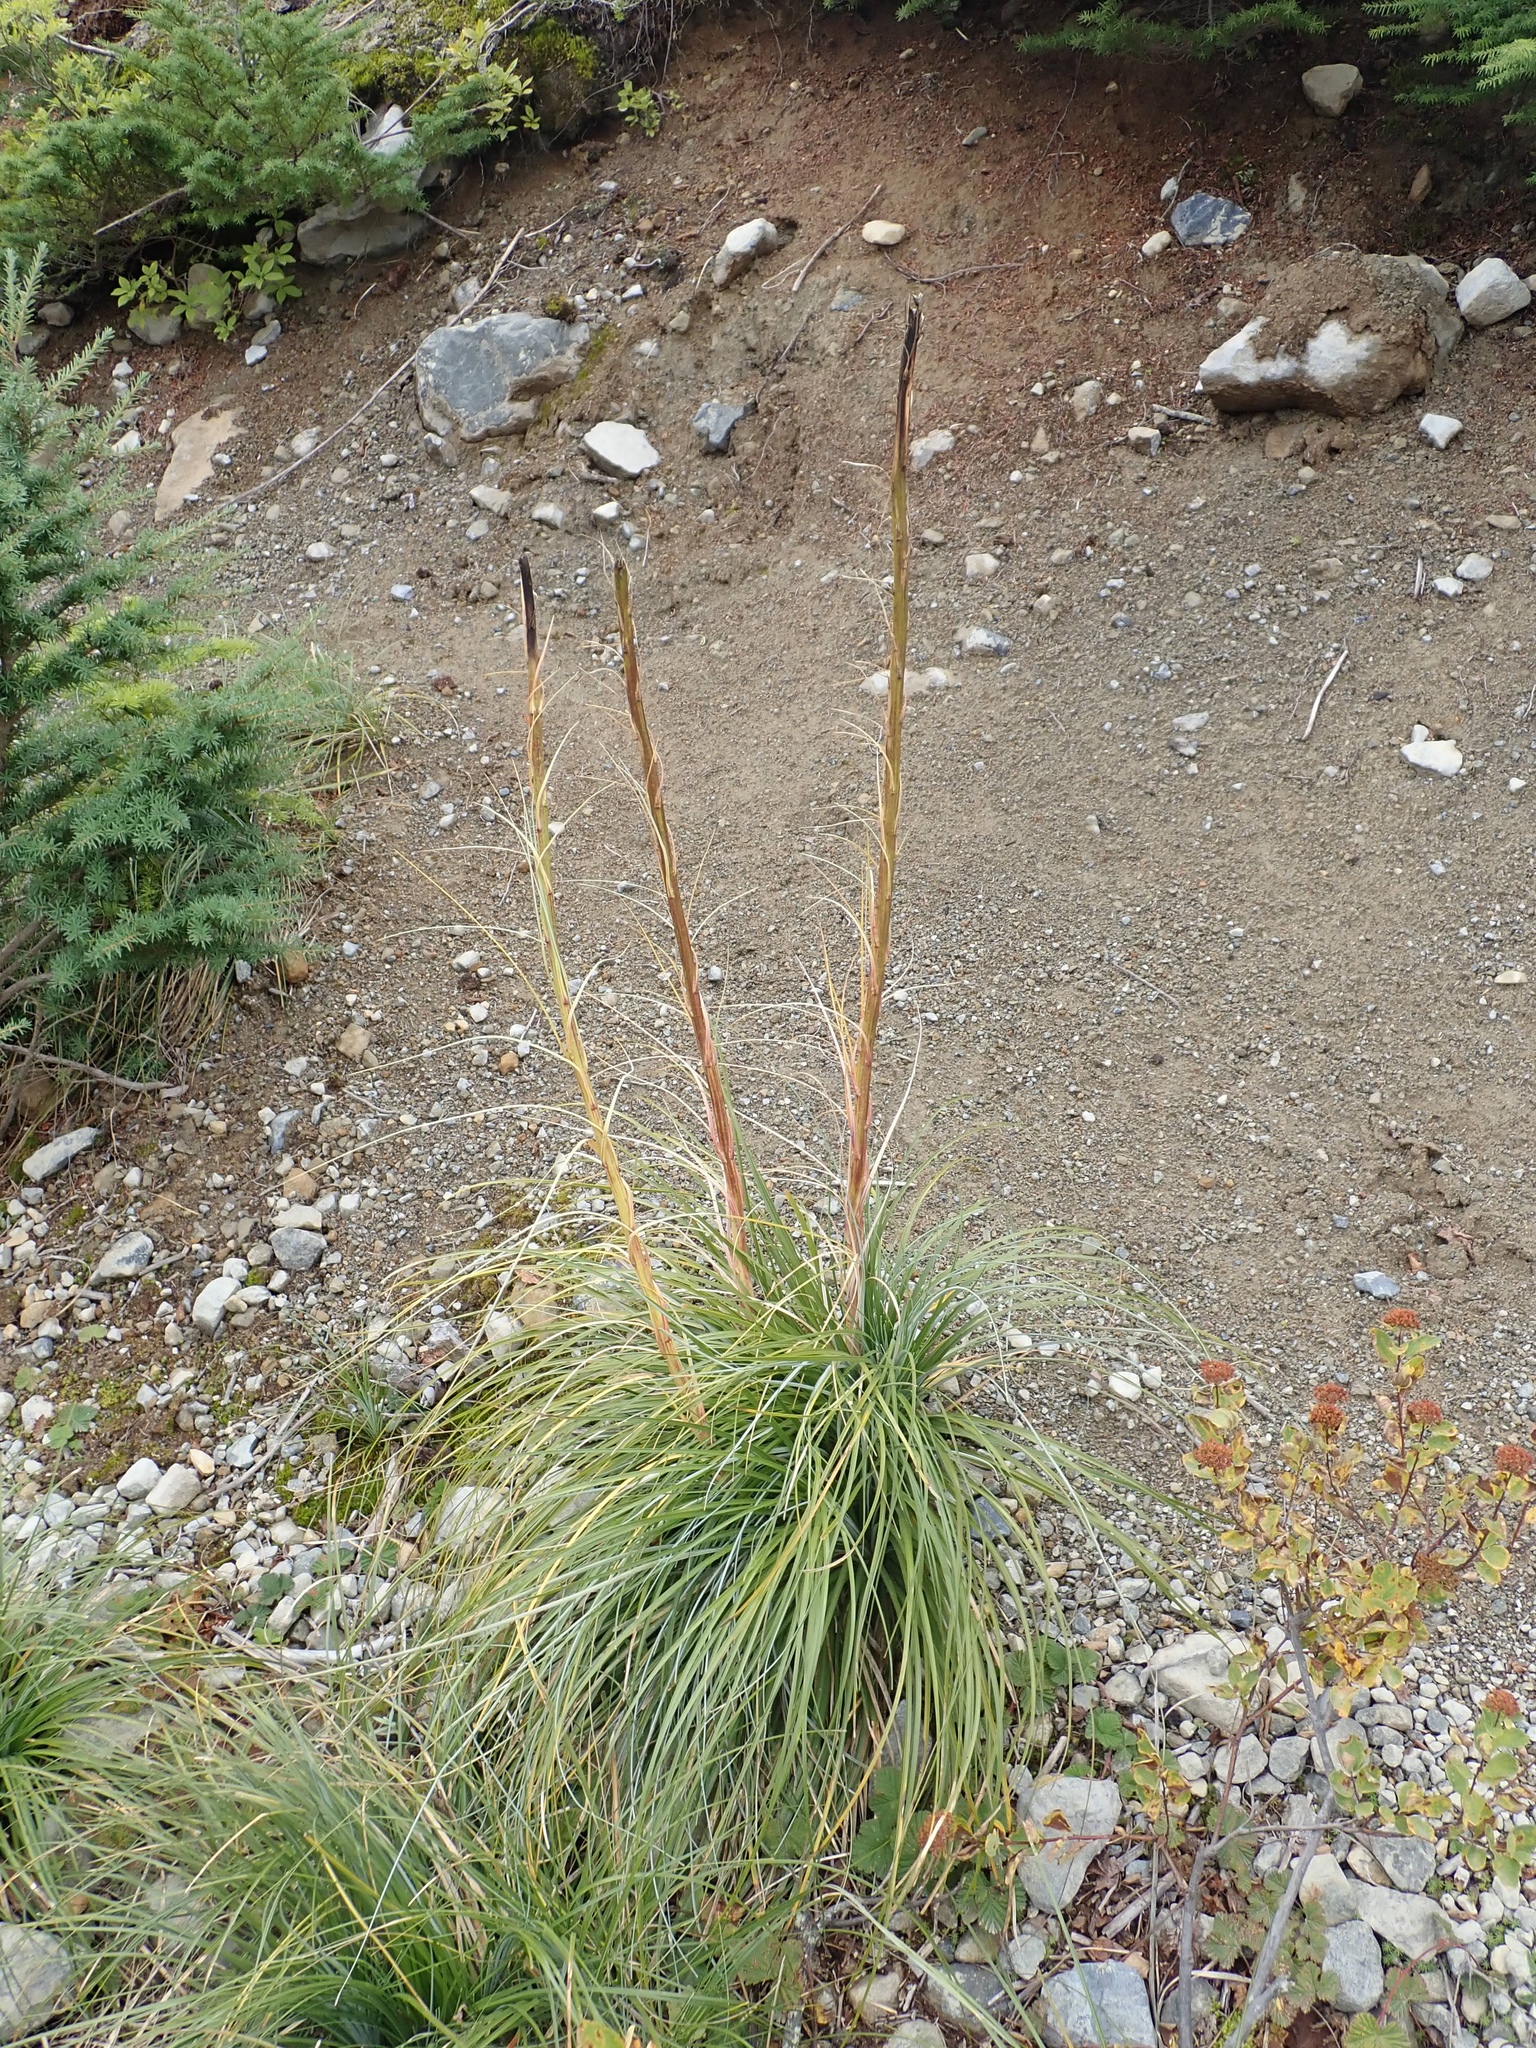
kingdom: Plantae
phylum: Tracheophyta
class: Liliopsida
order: Liliales
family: Melanthiaceae
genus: Xerophyllum
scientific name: Xerophyllum tenax
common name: Bear-grass
